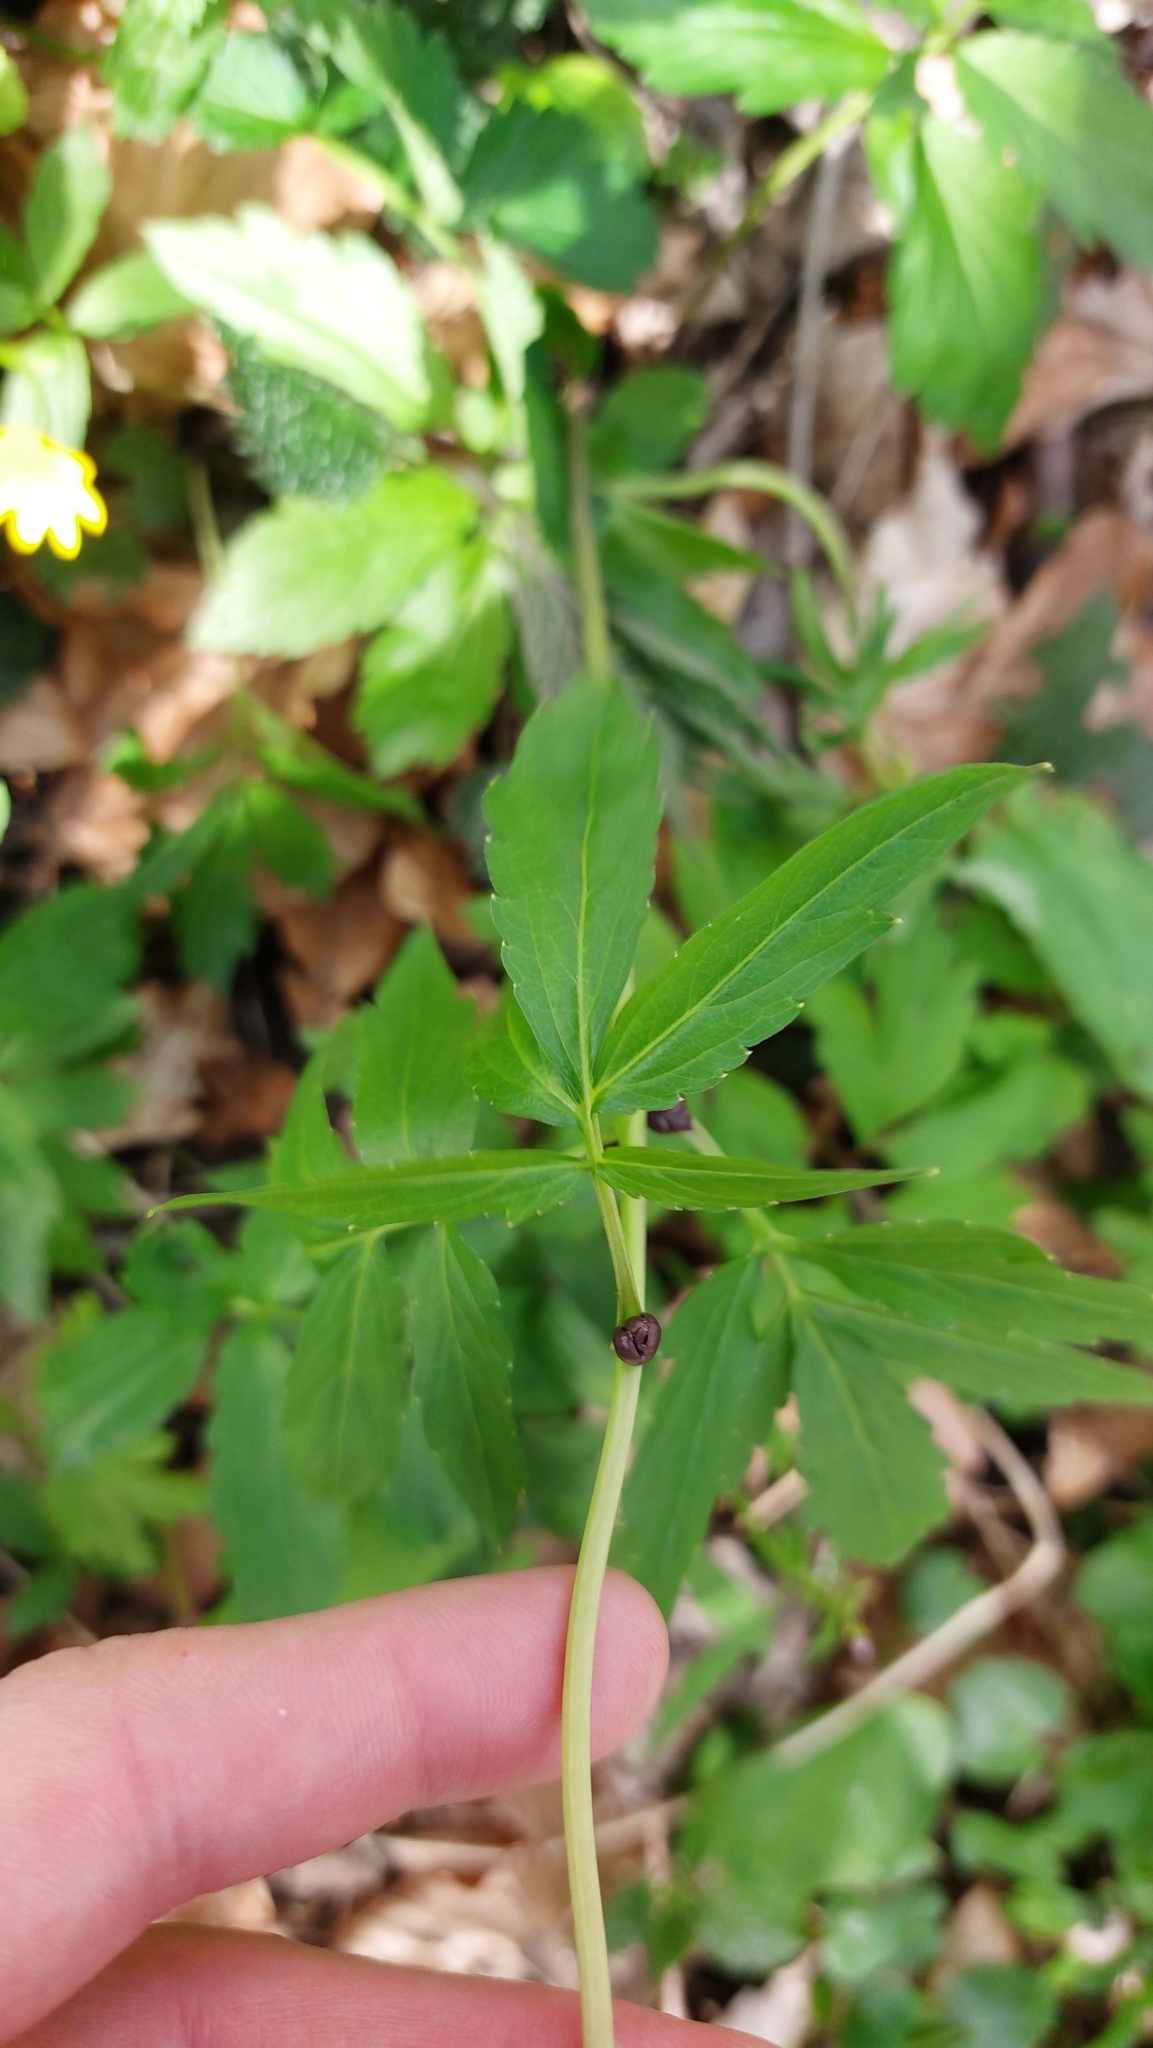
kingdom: Plantae
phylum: Tracheophyta
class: Magnoliopsida
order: Brassicales
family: Brassicaceae
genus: Cardamine
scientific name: Cardamine bulbifera
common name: Coralroot bittercress
